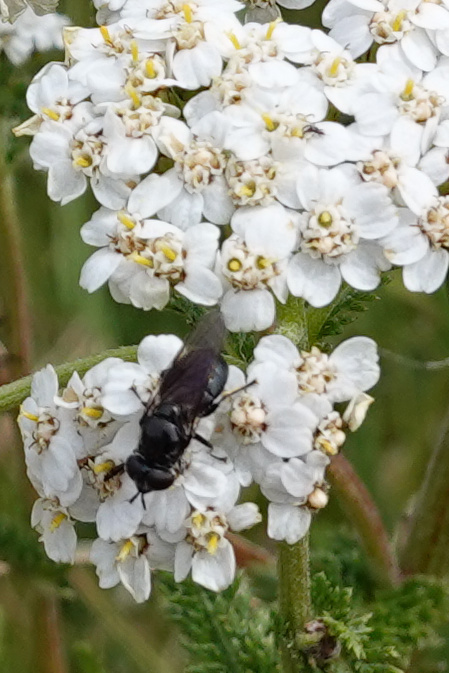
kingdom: Animalia
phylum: Arthropoda
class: Insecta
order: Diptera
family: Syrphidae
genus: Psilota
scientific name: Psilota decessum
